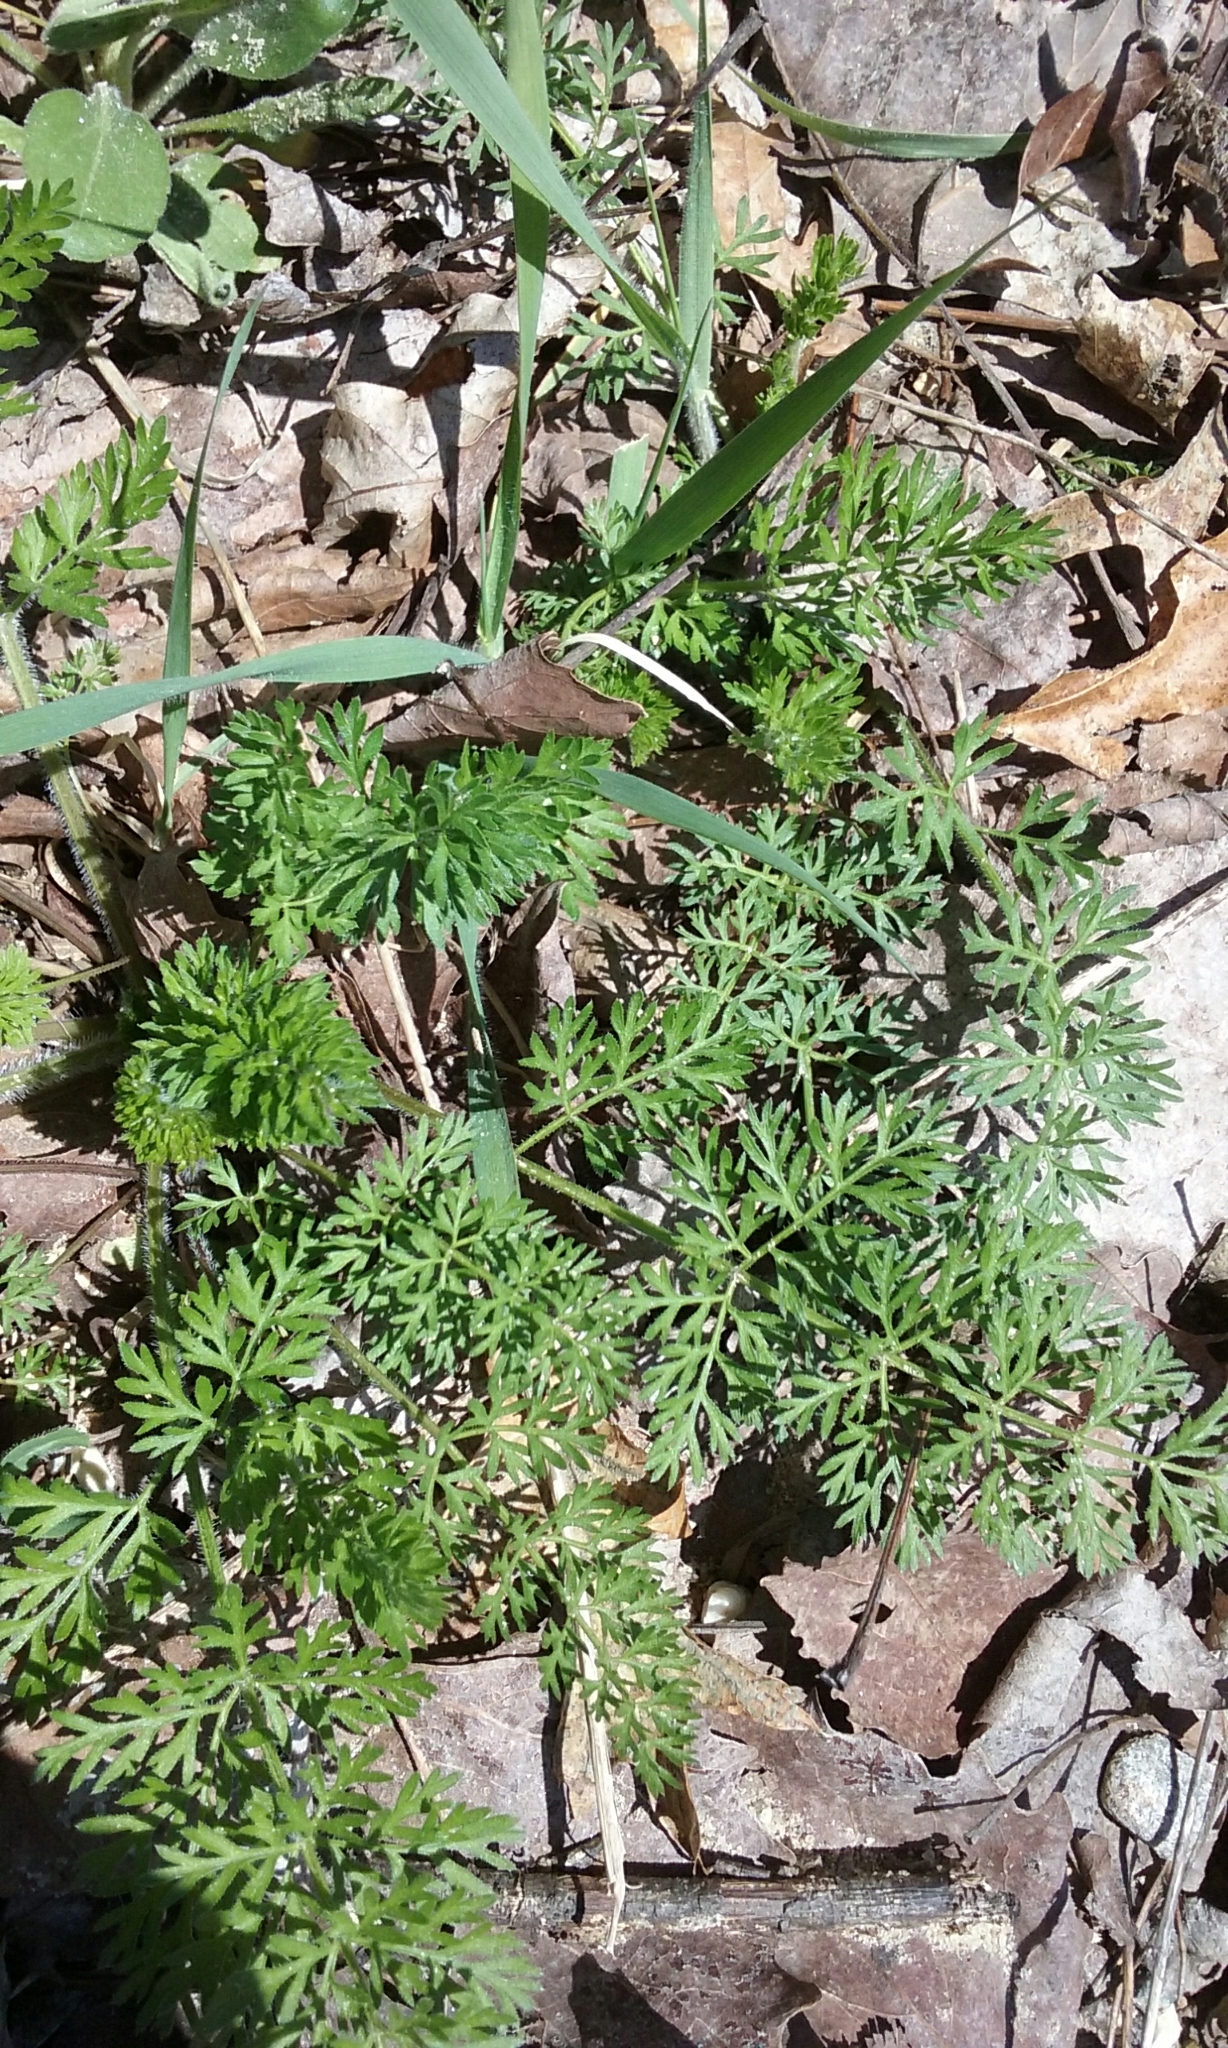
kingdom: Plantae
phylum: Tracheophyta
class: Magnoliopsida
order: Apiales
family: Apiaceae
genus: Daucus
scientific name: Daucus carota
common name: Wild carrot
